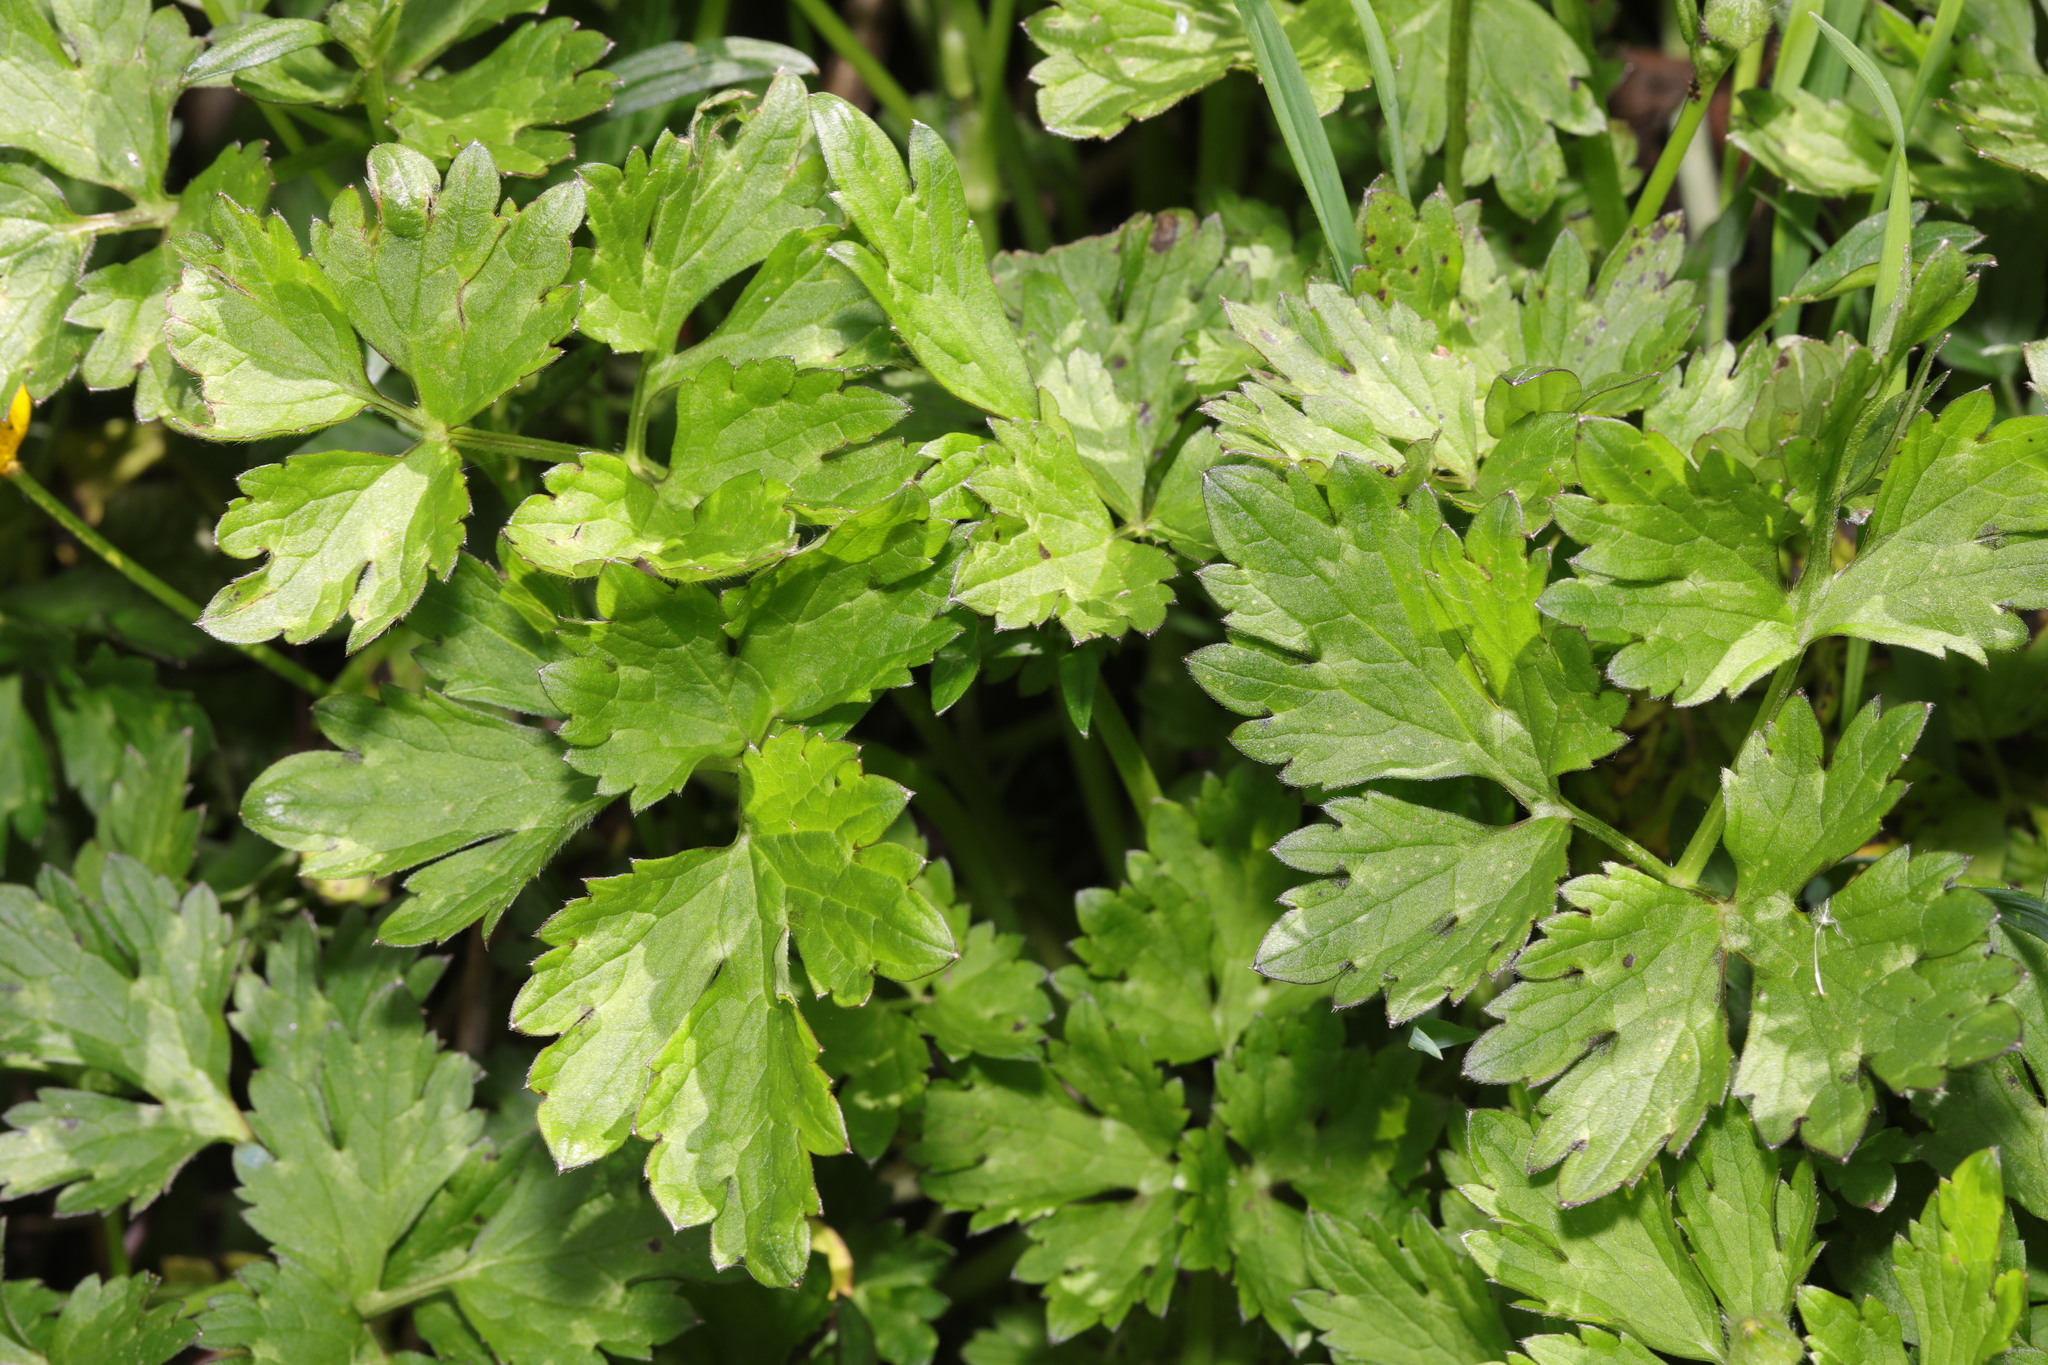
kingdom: Plantae
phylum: Tracheophyta
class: Magnoliopsida
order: Ranunculales
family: Ranunculaceae
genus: Ranunculus
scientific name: Ranunculus repens
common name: Creeping buttercup
